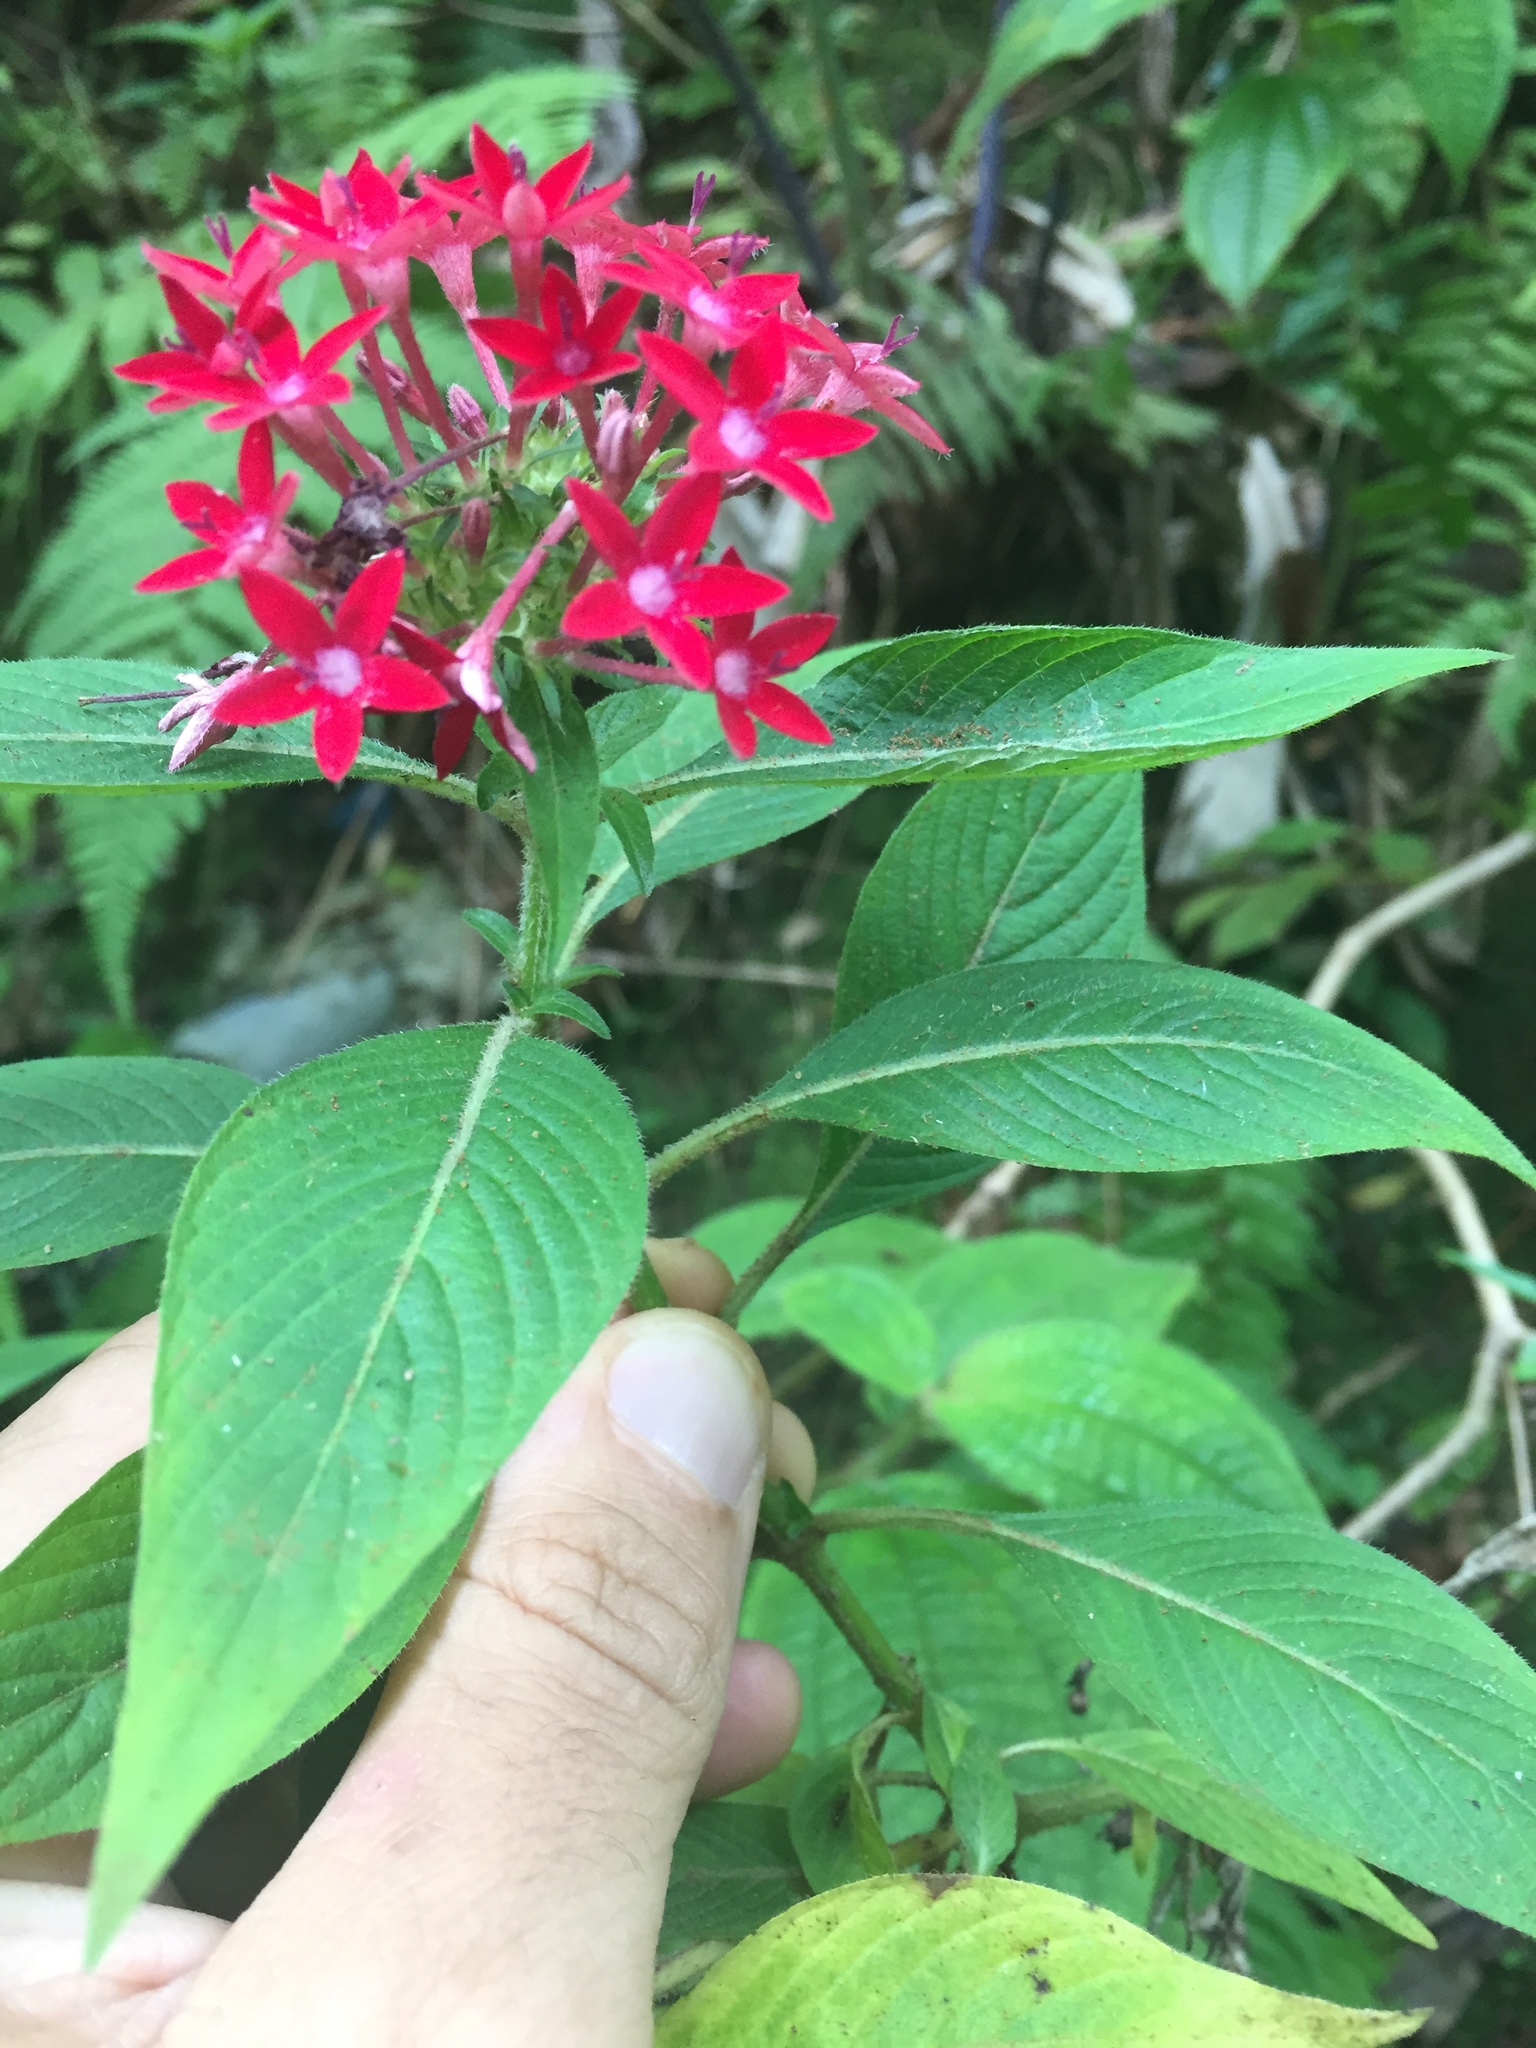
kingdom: Plantae
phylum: Tracheophyta
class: Magnoliopsida
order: Gentianales
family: Rubiaceae
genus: Pentas
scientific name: Pentas lanceolata
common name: Egyptian starcluster
